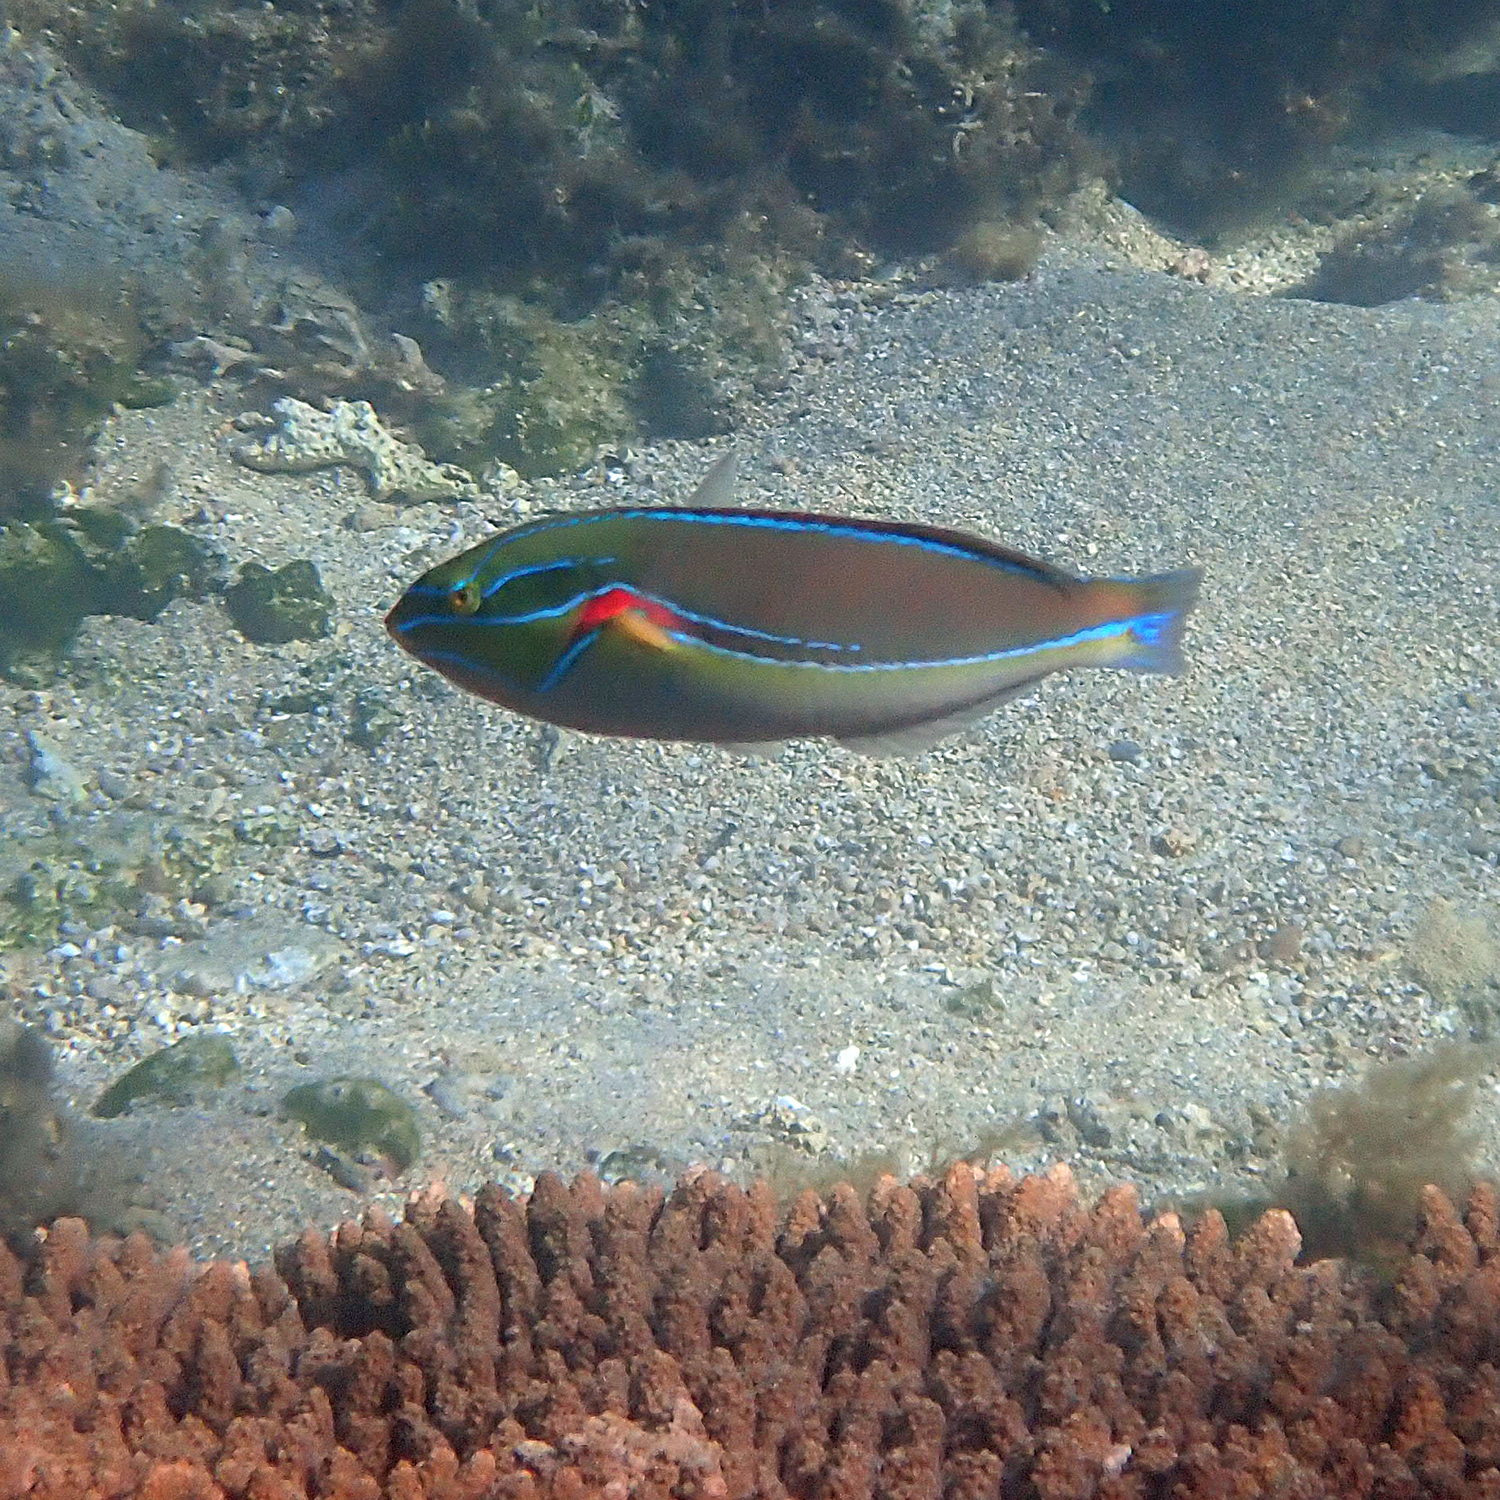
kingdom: Animalia
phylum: Chordata
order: Perciformes
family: Labridae
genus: Stethojulis
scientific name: Stethojulis bandanensis
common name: Red shoulder wrasse
